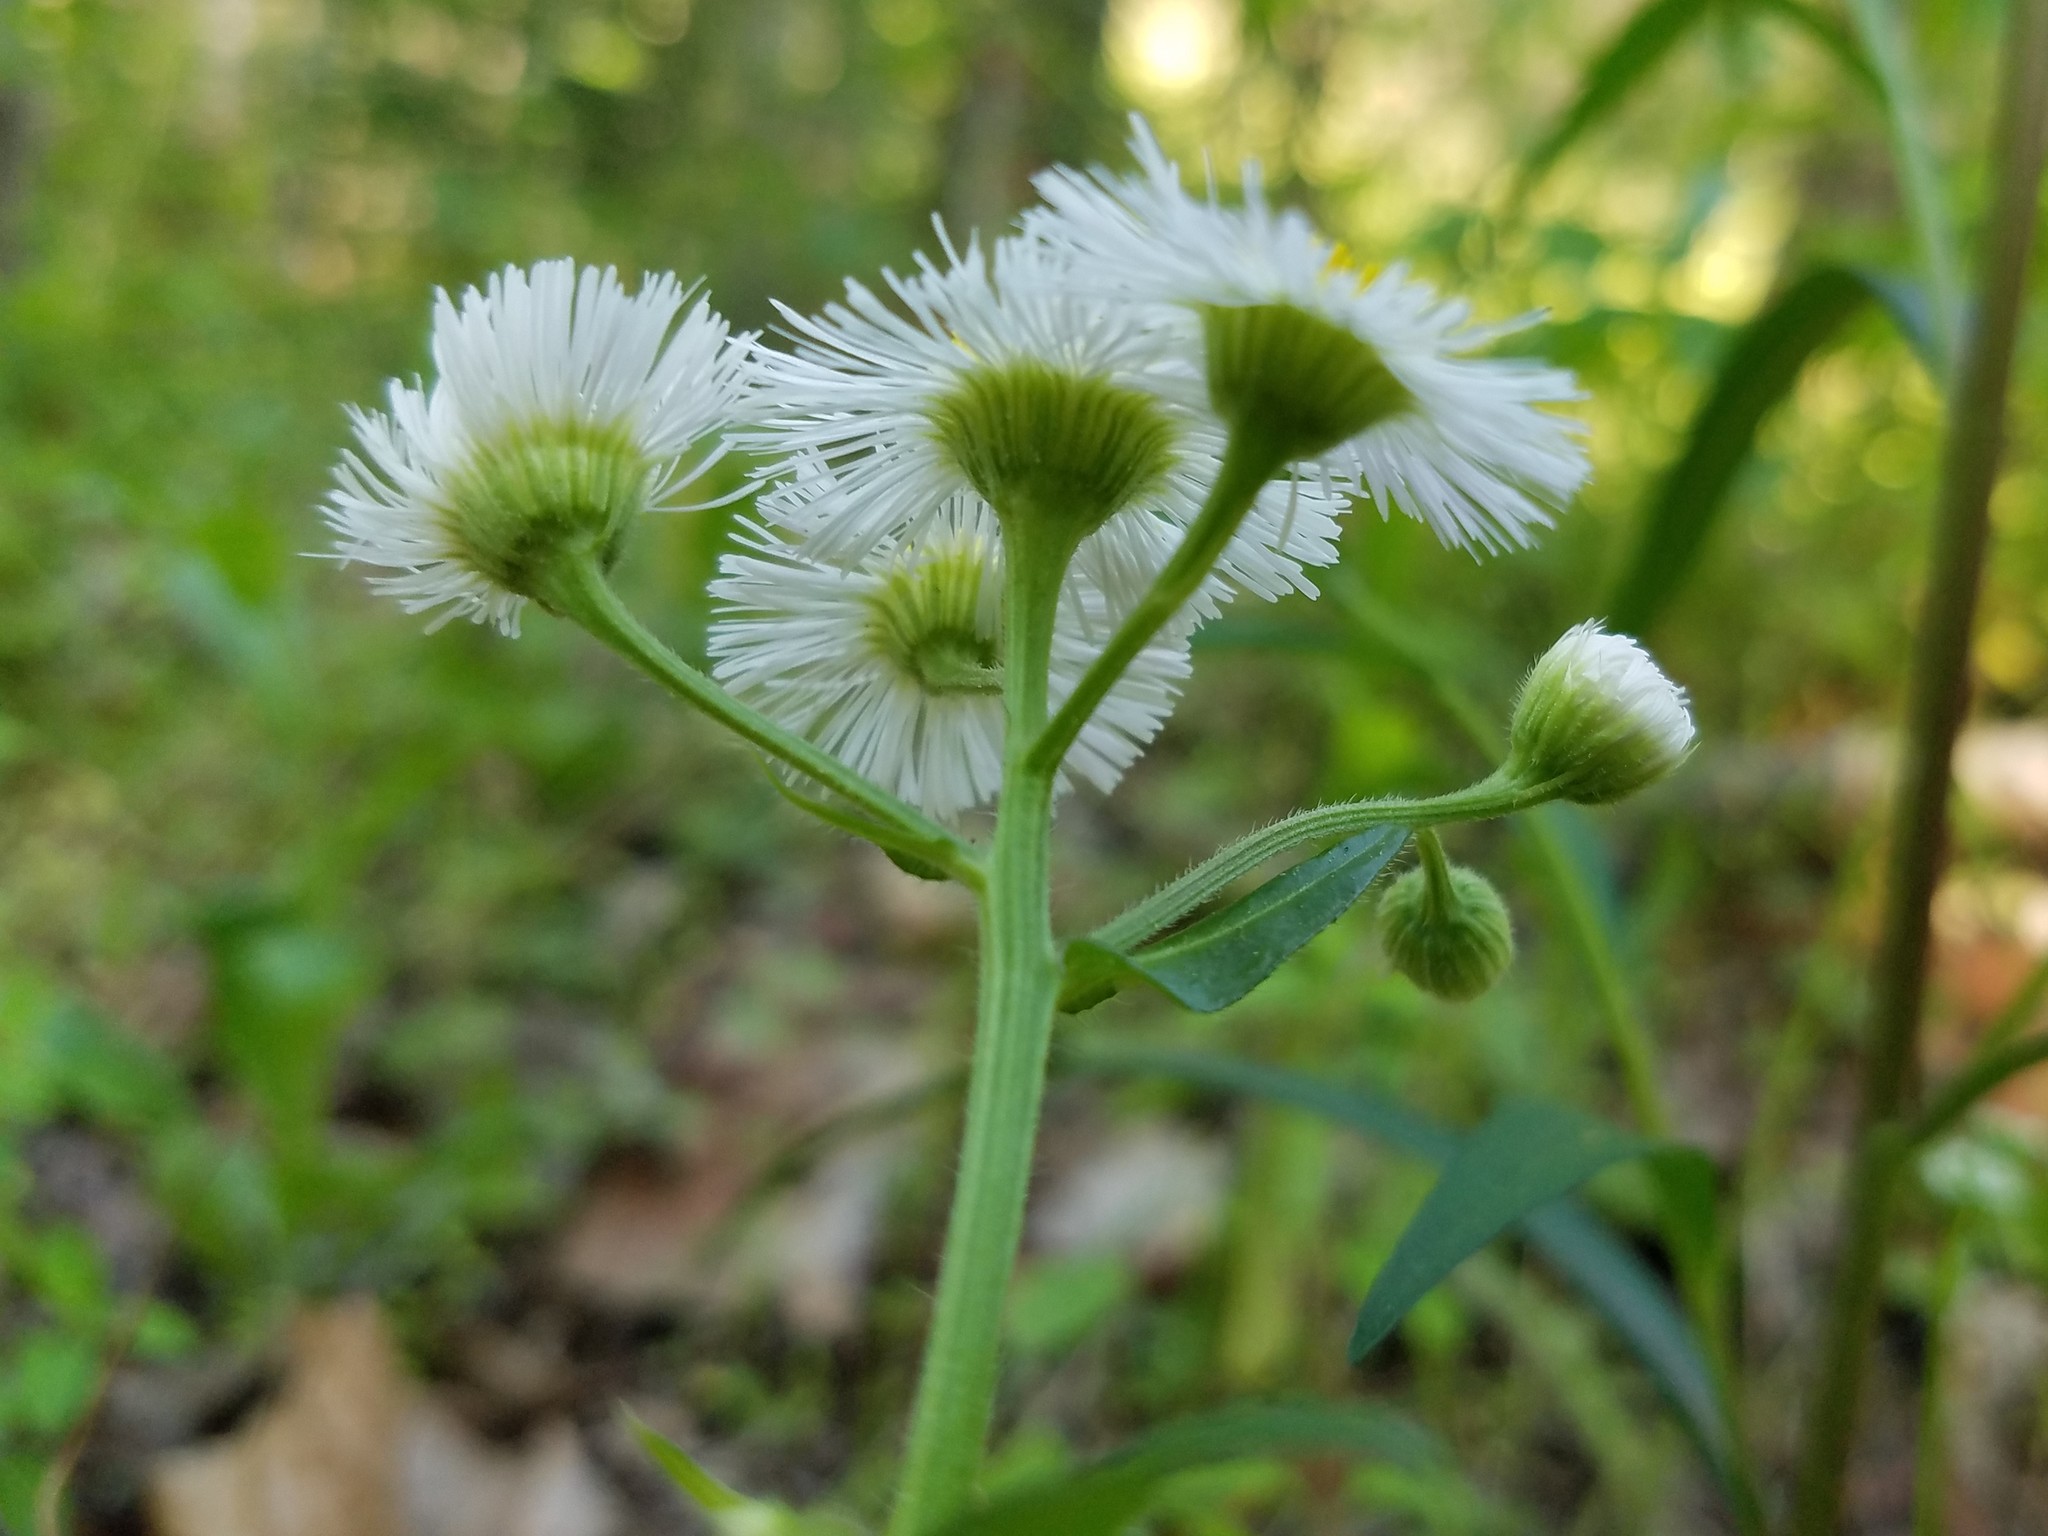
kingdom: Plantae
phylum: Tracheophyta
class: Magnoliopsida
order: Asterales
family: Asteraceae
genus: Erigeron
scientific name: Erigeron philadelphicus
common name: Robin's-plantain
